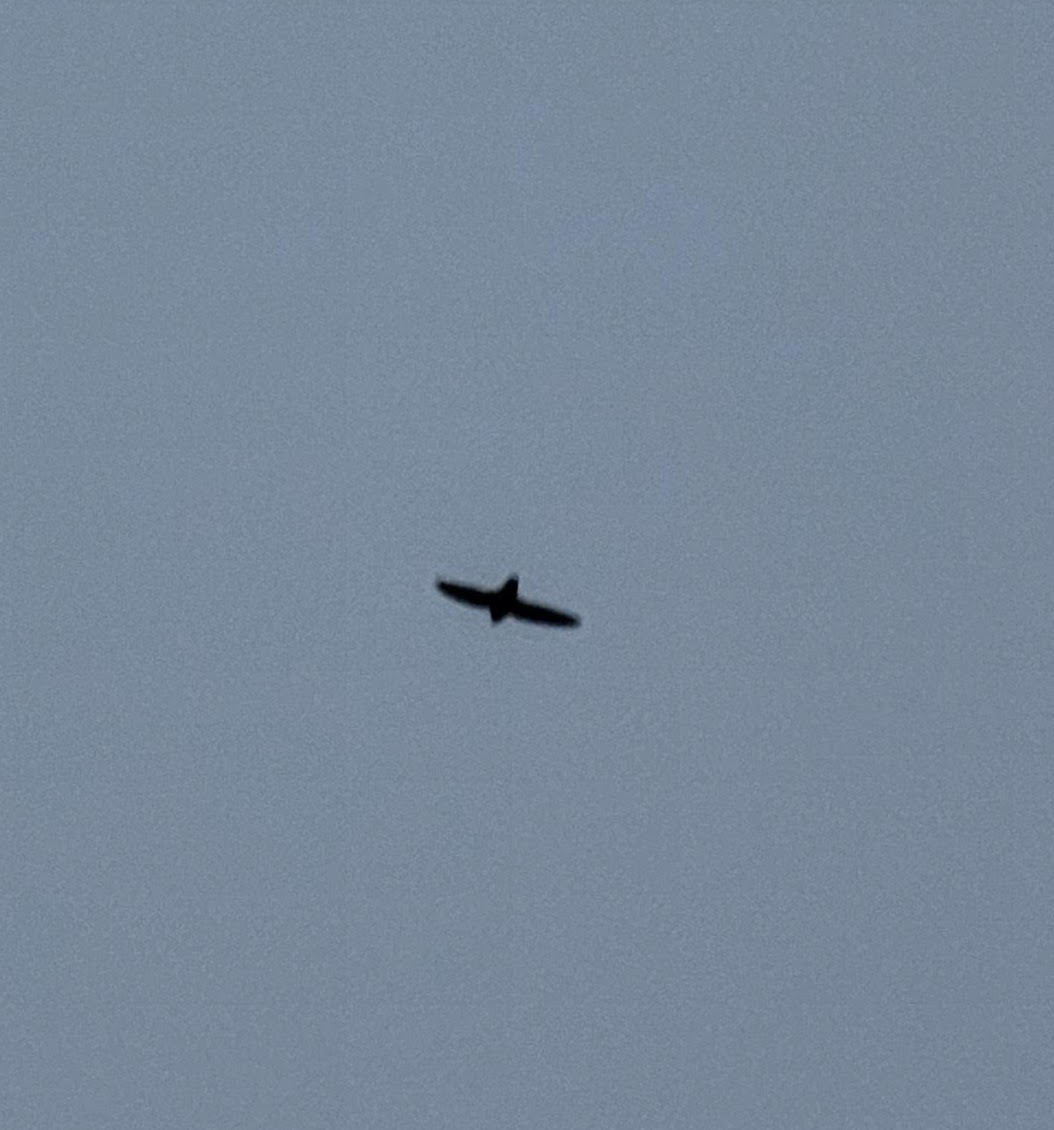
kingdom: Animalia
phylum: Chordata
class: Aves
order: Apodiformes
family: Apodidae
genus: Chaetura
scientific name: Chaetura pelagica
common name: Chimney swift
